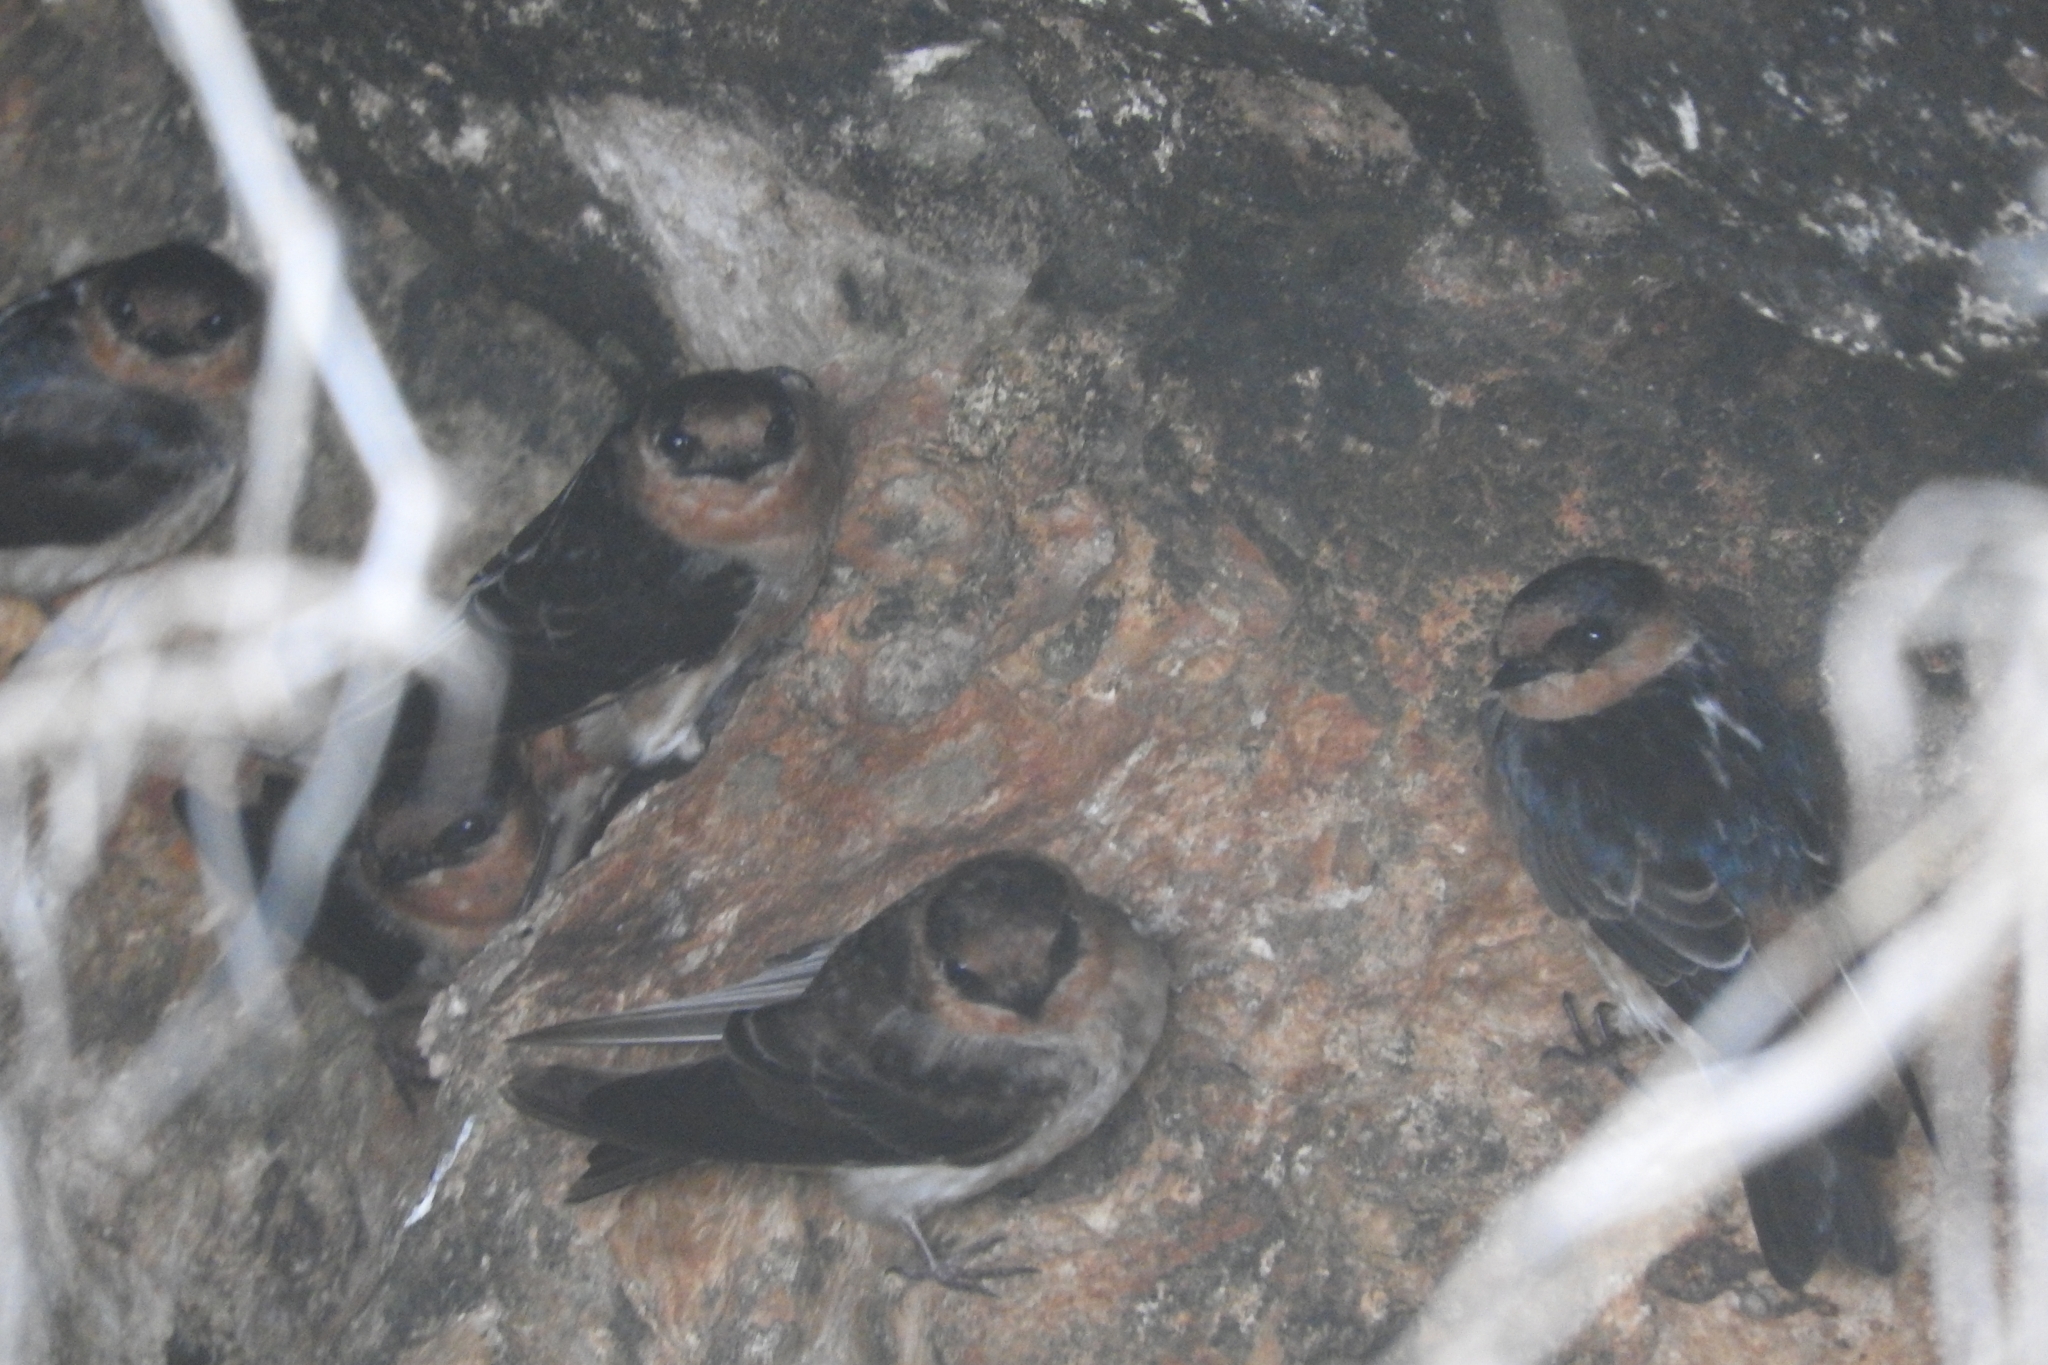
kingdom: Animalia
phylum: Chordata
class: Aves
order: Passeriformes
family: Hirundinidae
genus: Petrochelidon
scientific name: Petrochelidon fulva
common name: Cave swallow
